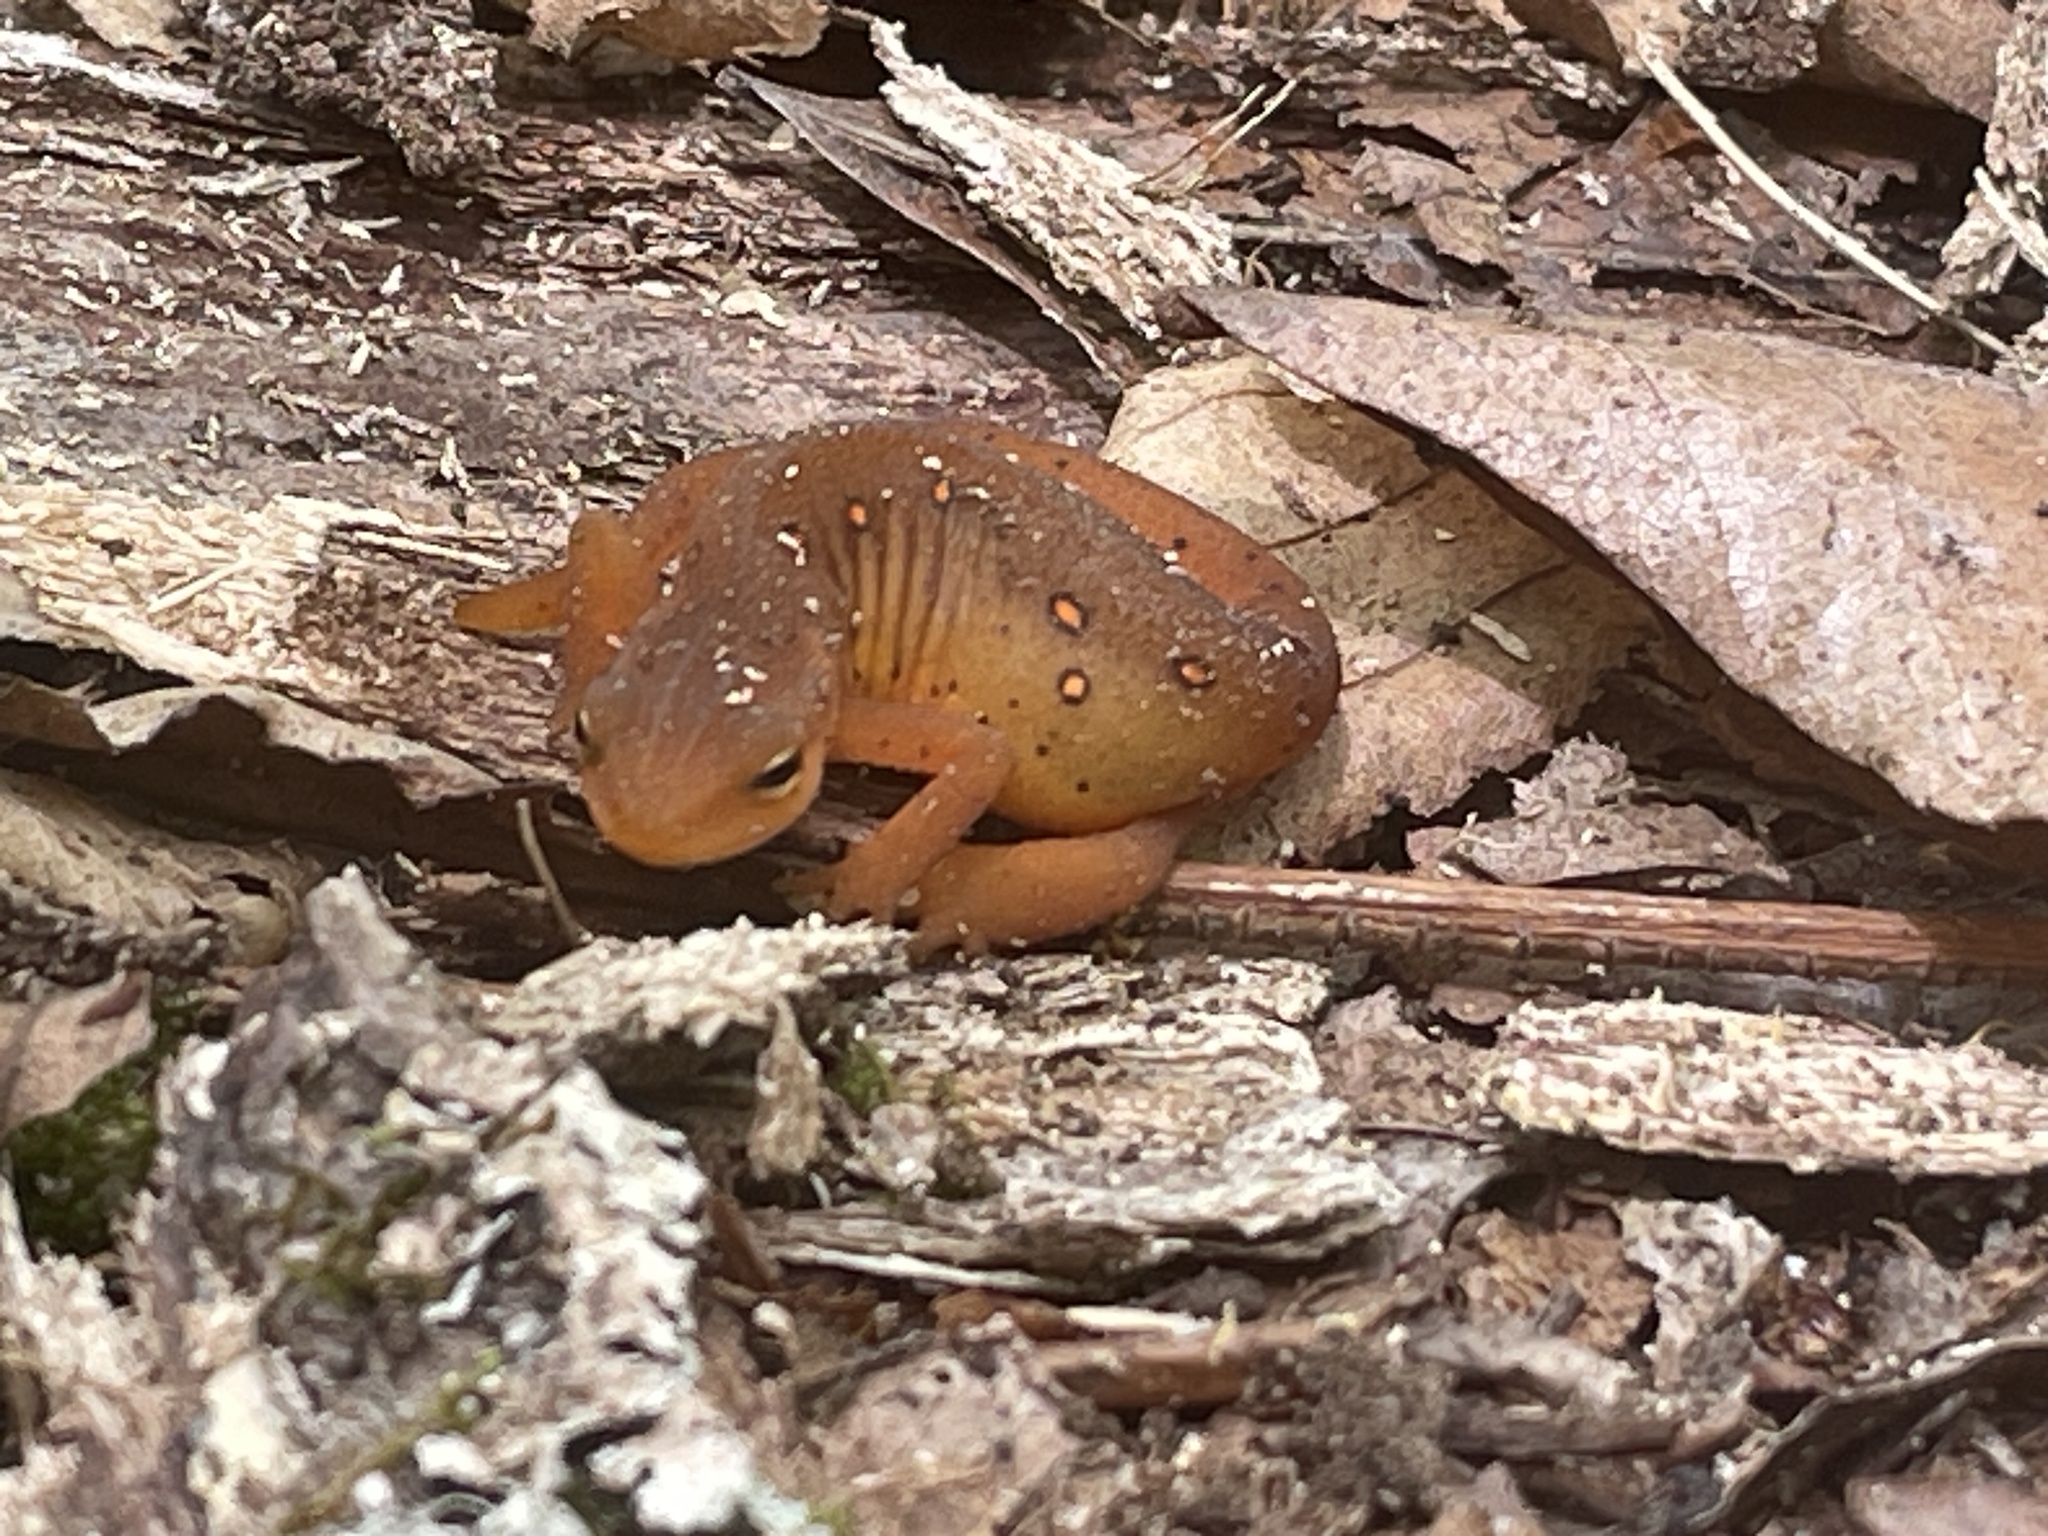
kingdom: Animalia
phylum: Chordata
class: Amphibia
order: Caudata
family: Salamandridae
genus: Notophthalmus
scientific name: Notophthalmus viridescens
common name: Eastern newt
